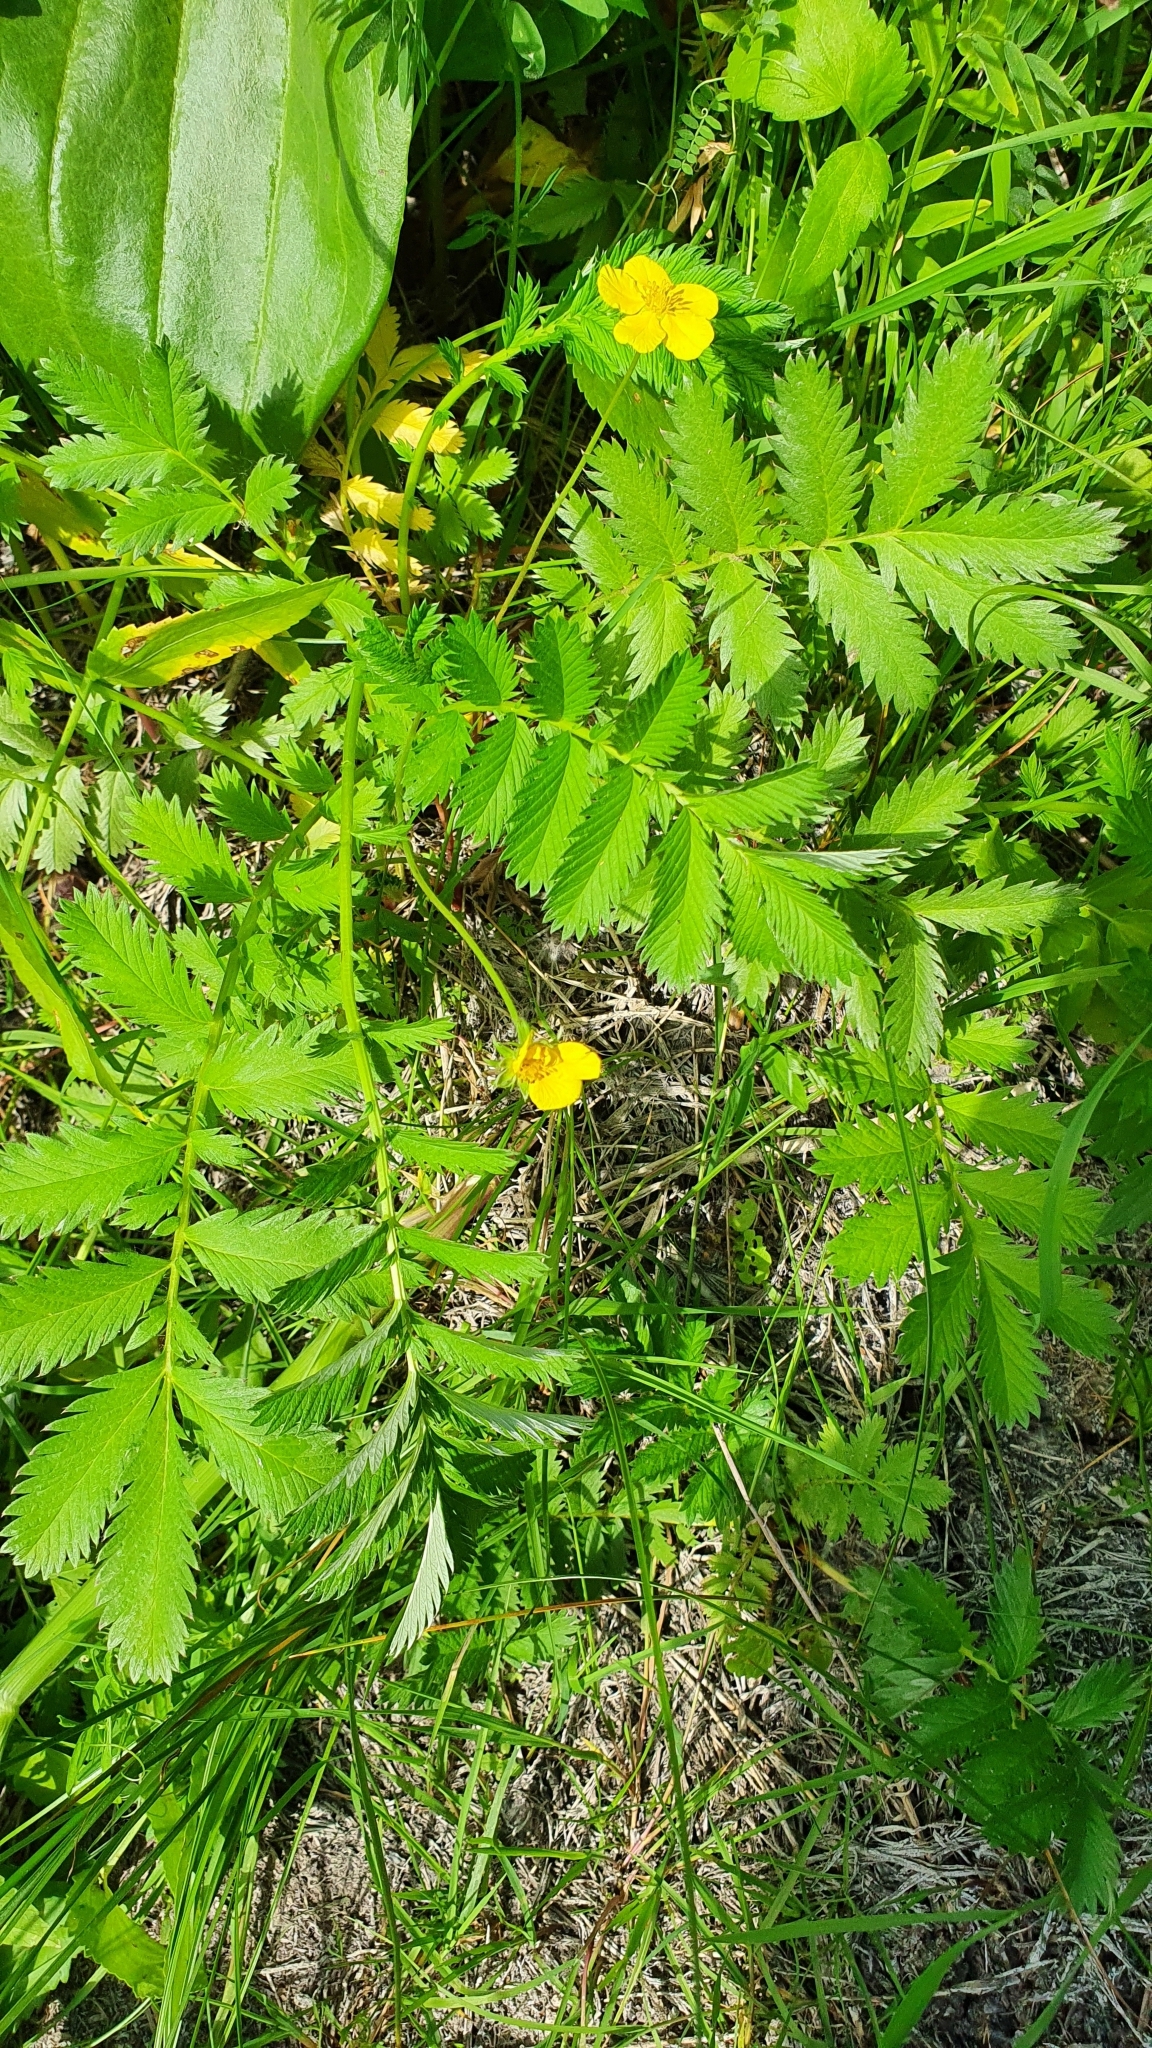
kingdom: Plantae
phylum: Tracheophyta
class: Magnoliopsida
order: Rosales
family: Rosaceae
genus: Argentina
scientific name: Argentina anserina
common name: Common silverweed
